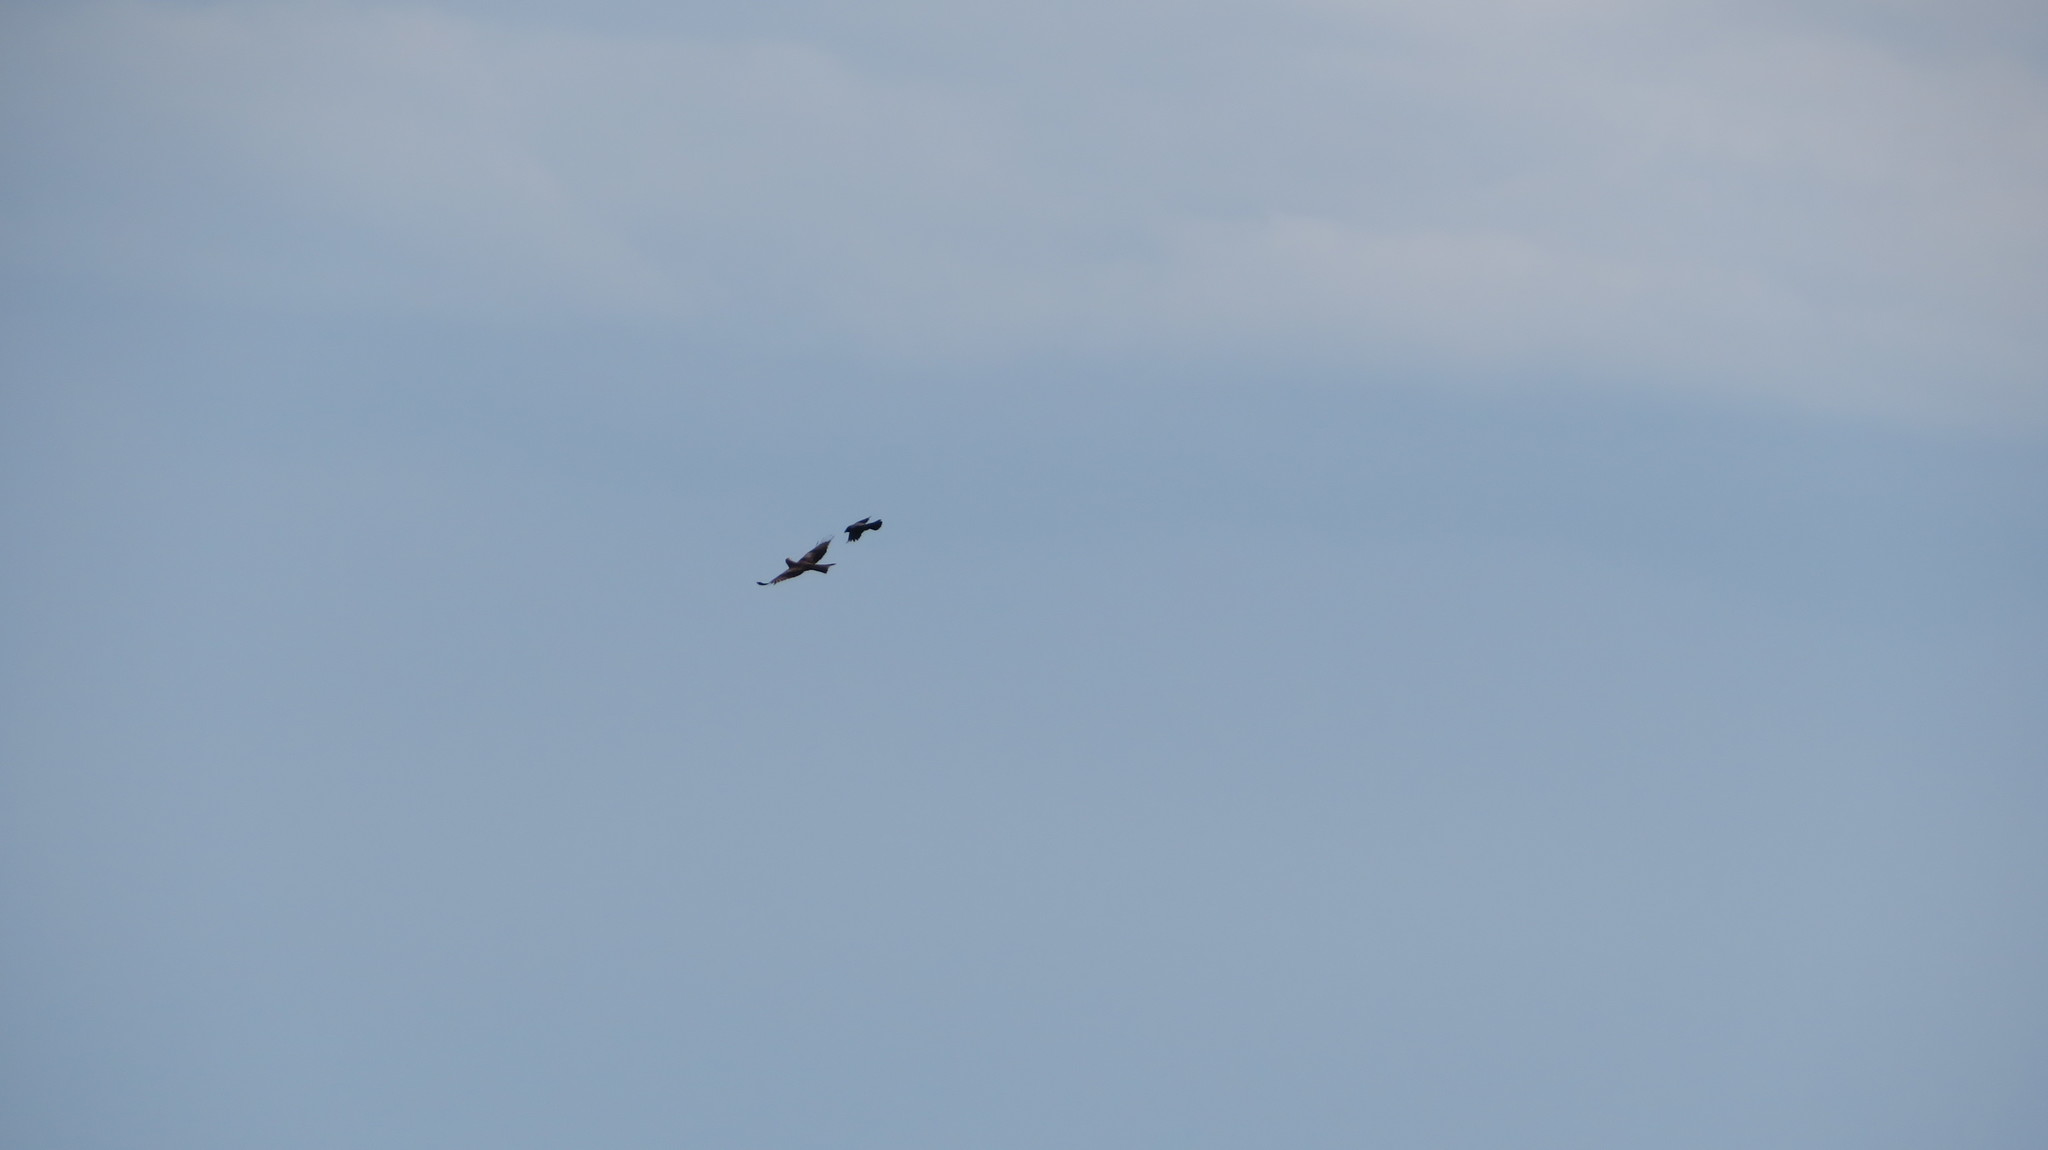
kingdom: Animalia
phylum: Chordata
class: Aves
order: Accipitriformes
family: Accipitridae
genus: Milvus
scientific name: Milvus migrans
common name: Black kite
